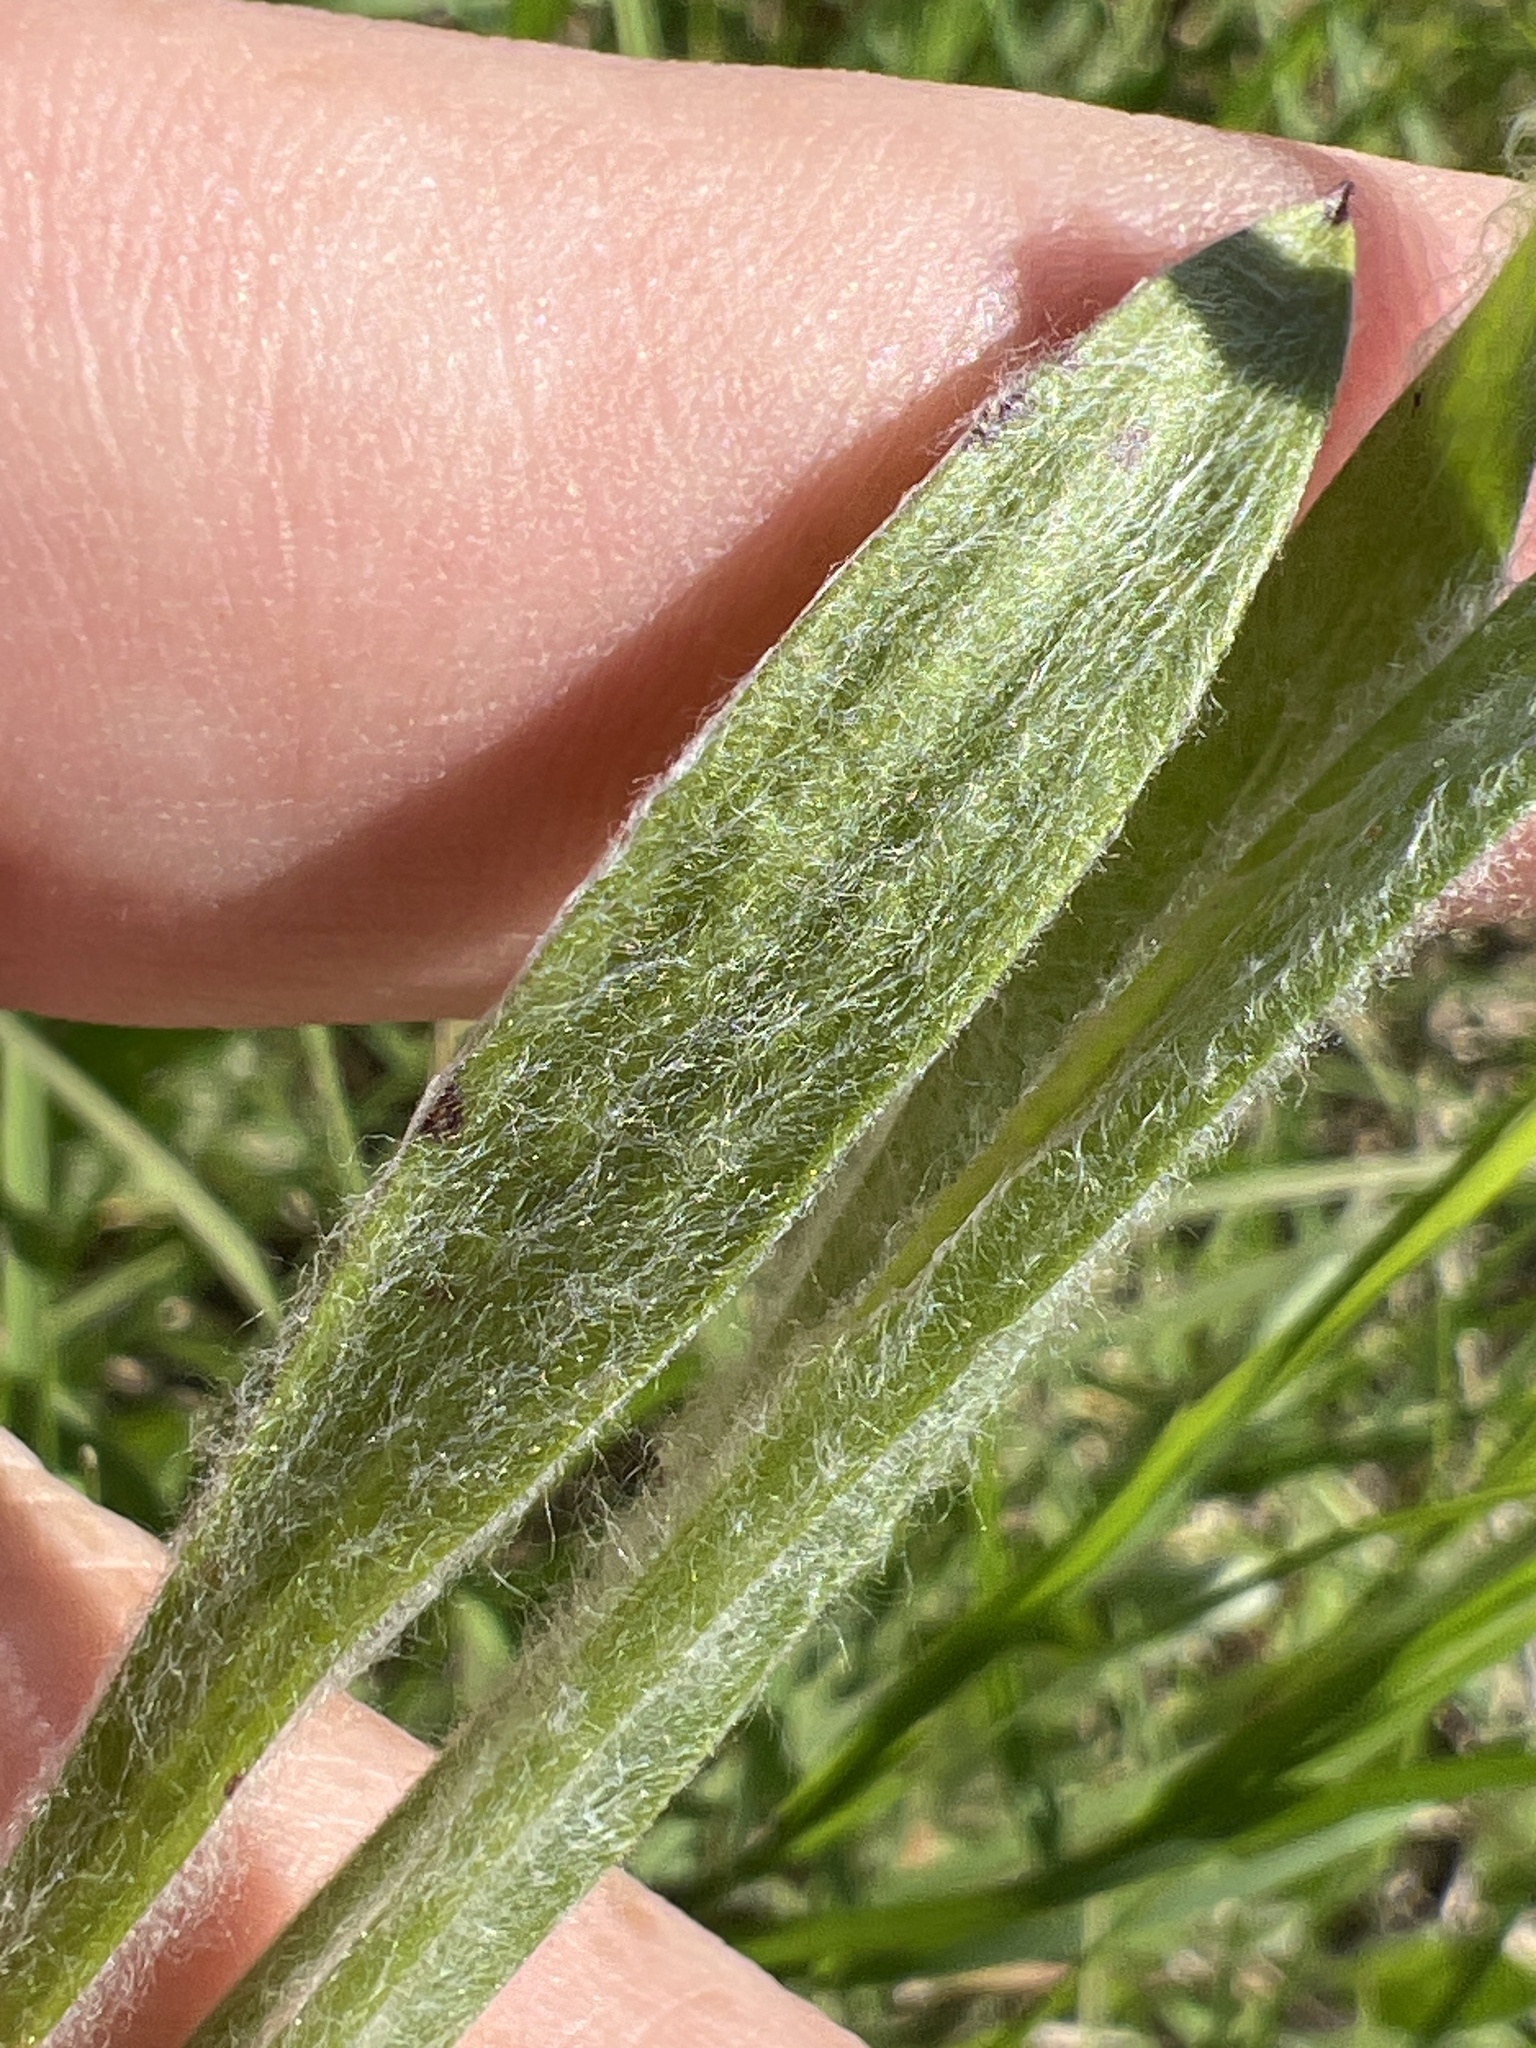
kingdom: Plantae
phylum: Tracheophyta
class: Magnoliopsida
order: Lamiales
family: Plantaginaceae
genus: Plantago
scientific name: Plantago wrightiana
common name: Wright's plantain
